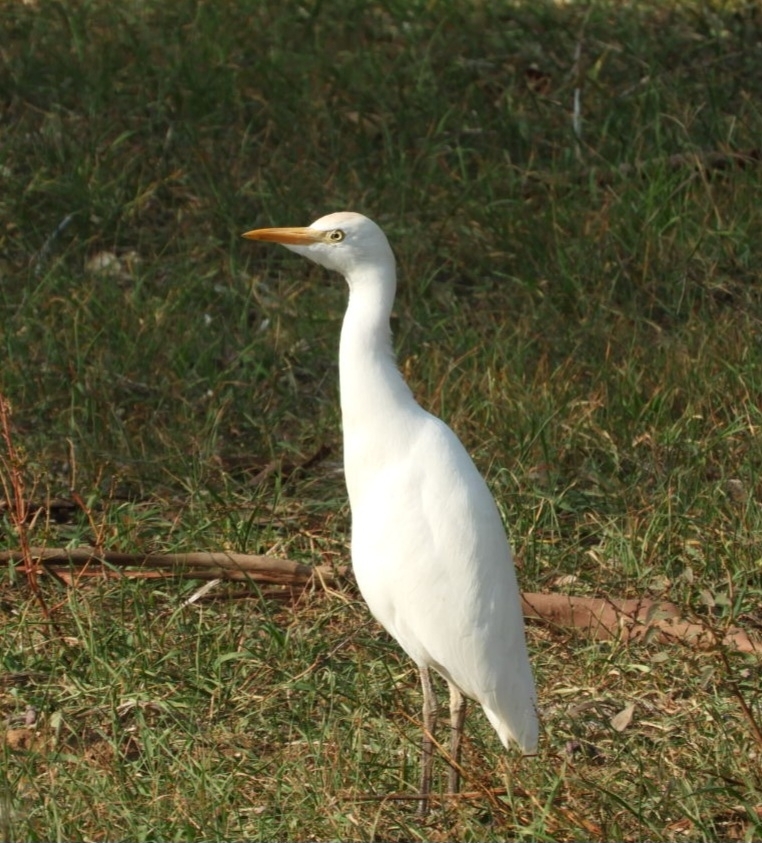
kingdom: Animalia
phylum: Chordata
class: Aves
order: Pelecaniformes
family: Ardeidae
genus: Bubulcus
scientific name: Bubulcus ibis
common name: Cattle egret
